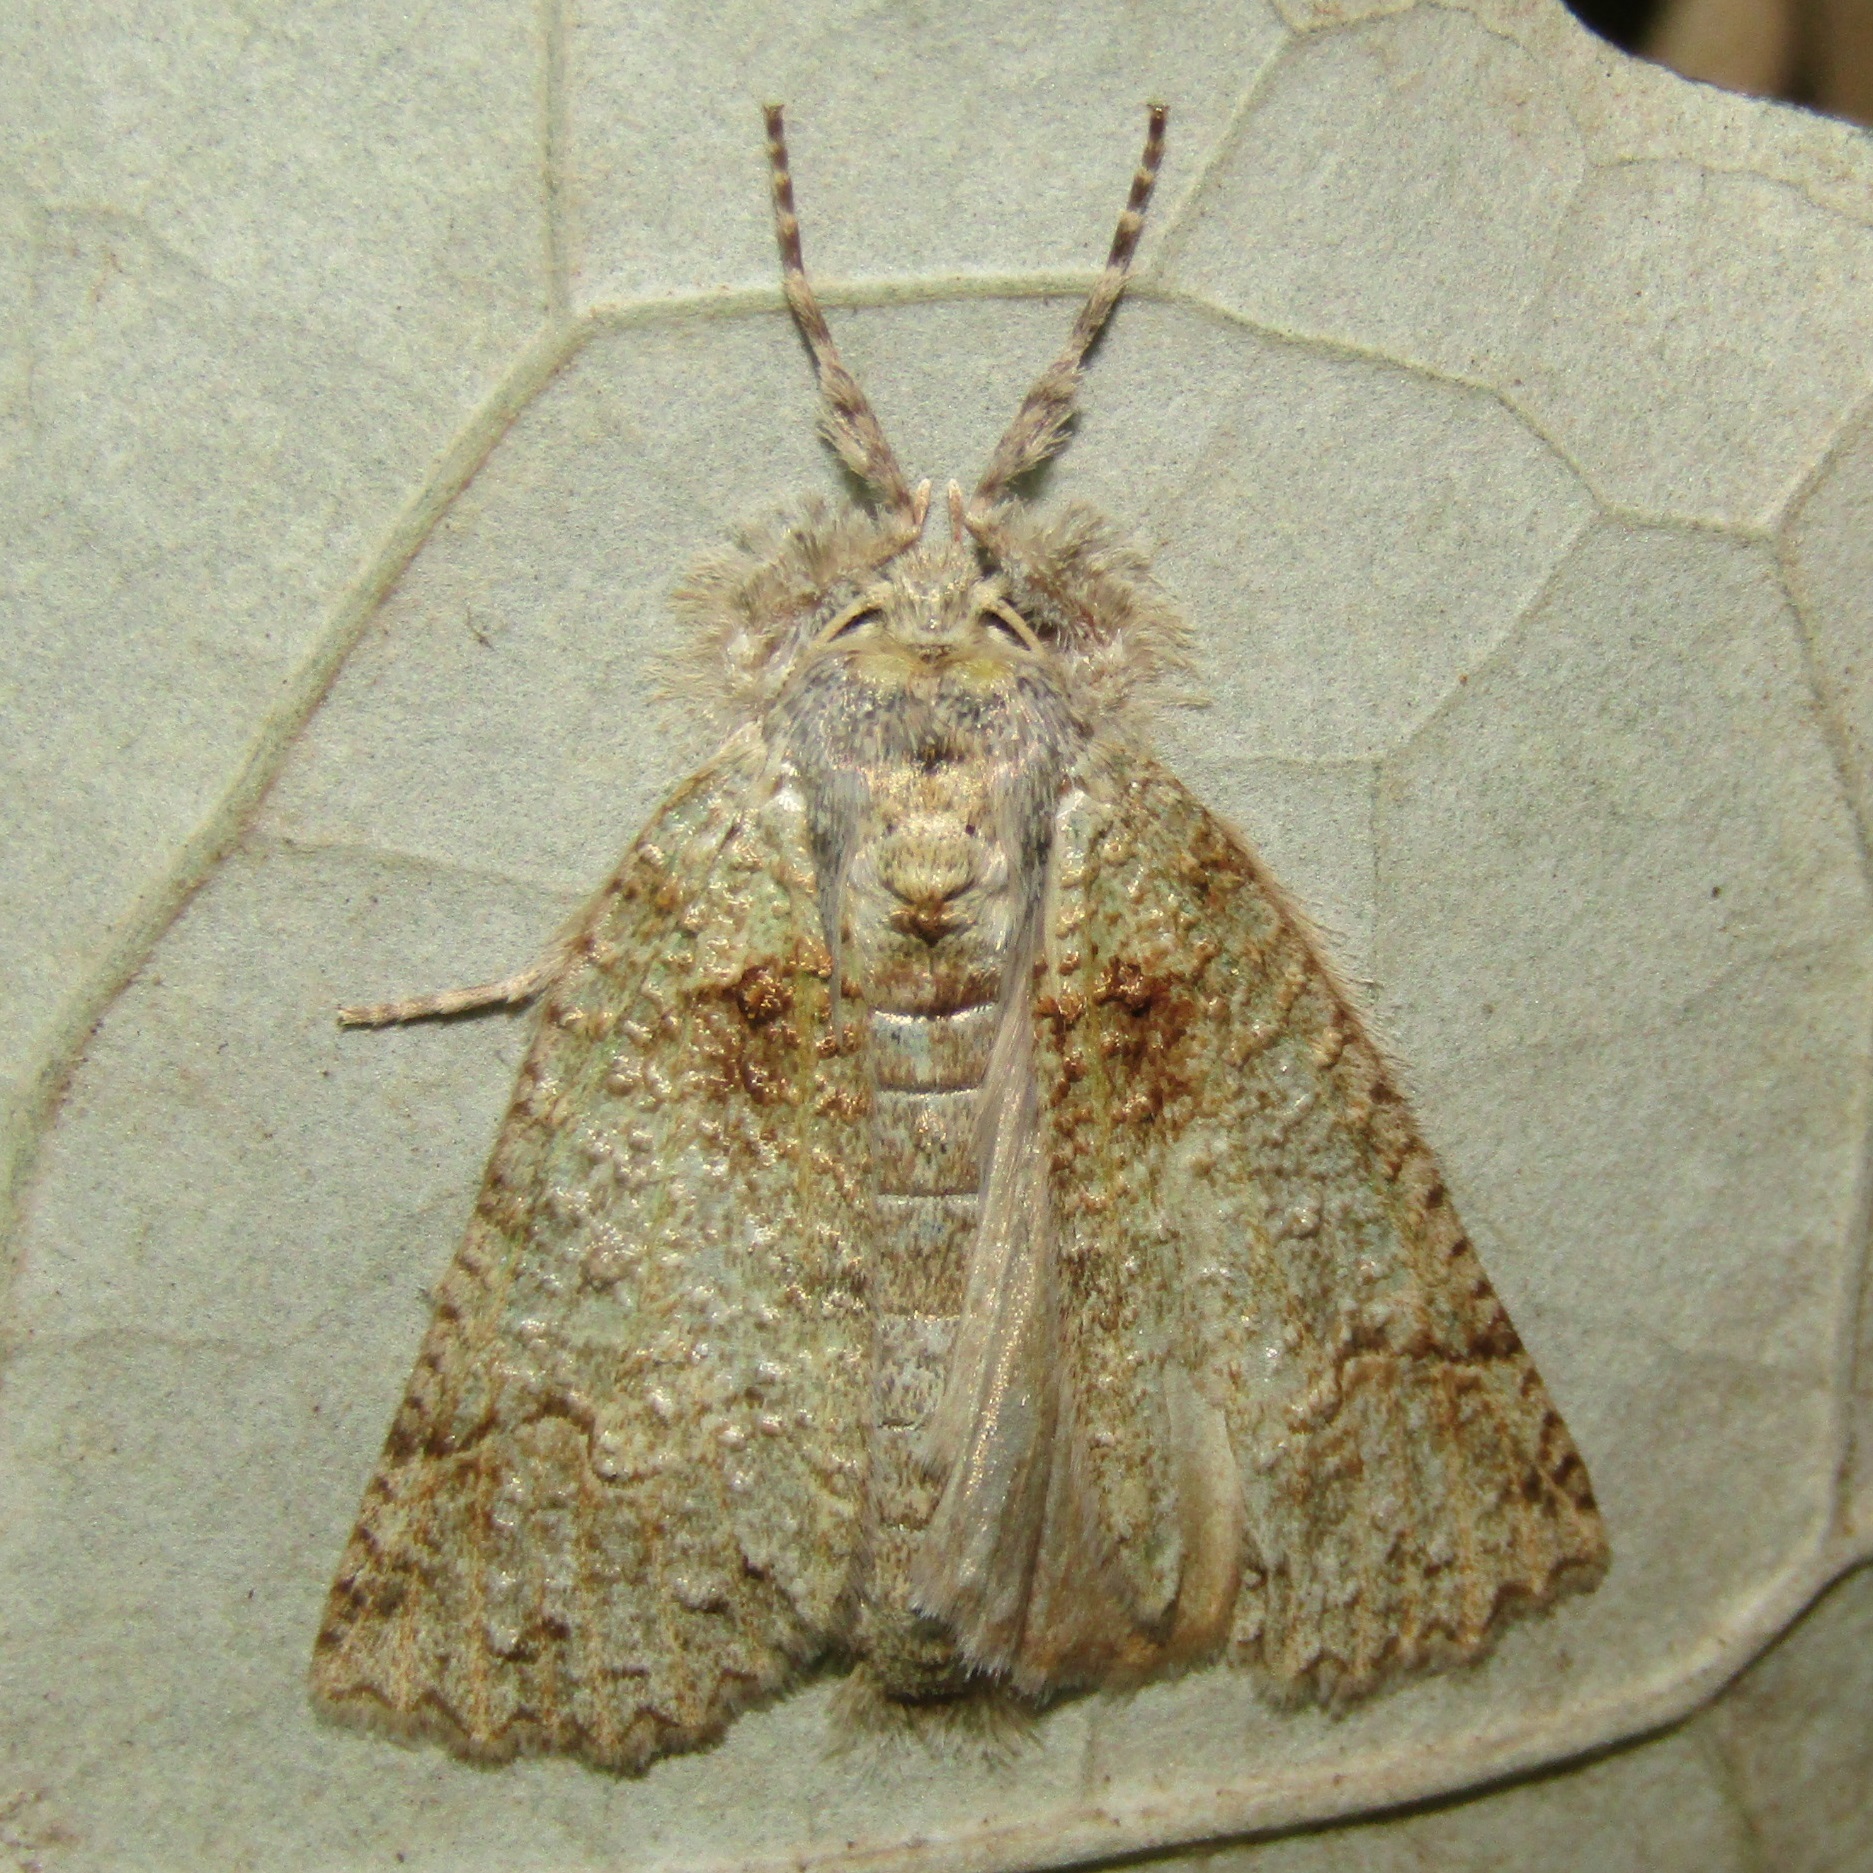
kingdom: Animalia
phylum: Arthropoda
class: Insecta
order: Lepidoptera
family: Geometridae
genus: Declana
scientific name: Declana floccosa
